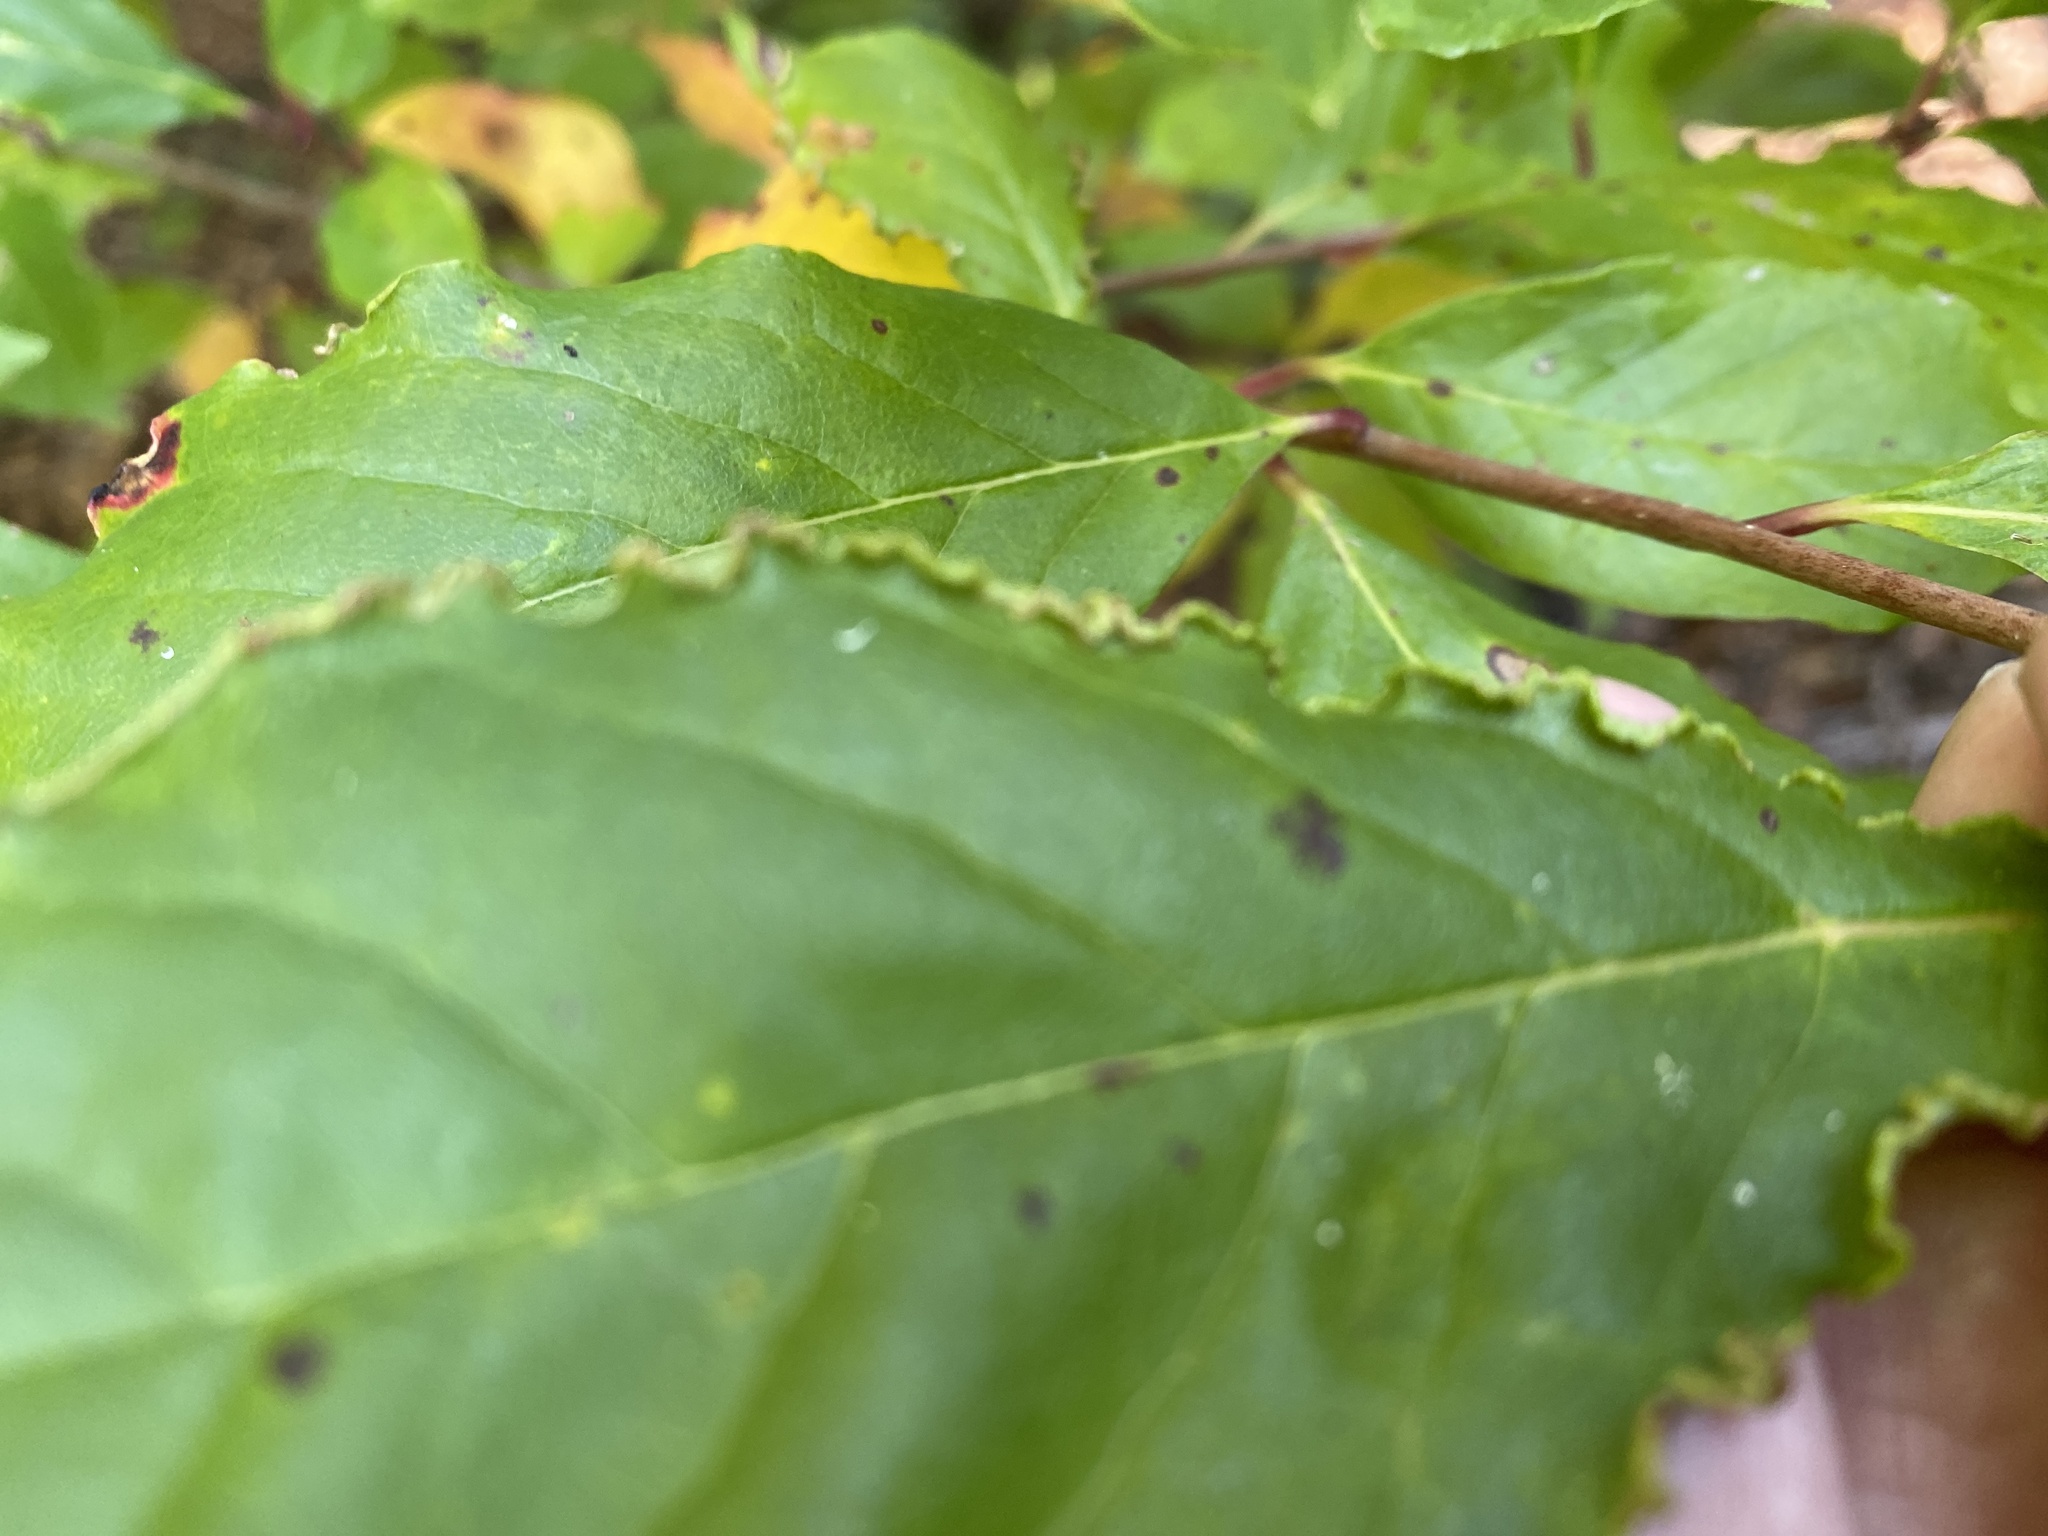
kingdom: Animalia
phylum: Arthropoda
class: Arachnida
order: Trombidiformes
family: Eriophyidae
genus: Aceria
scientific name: Aceria
